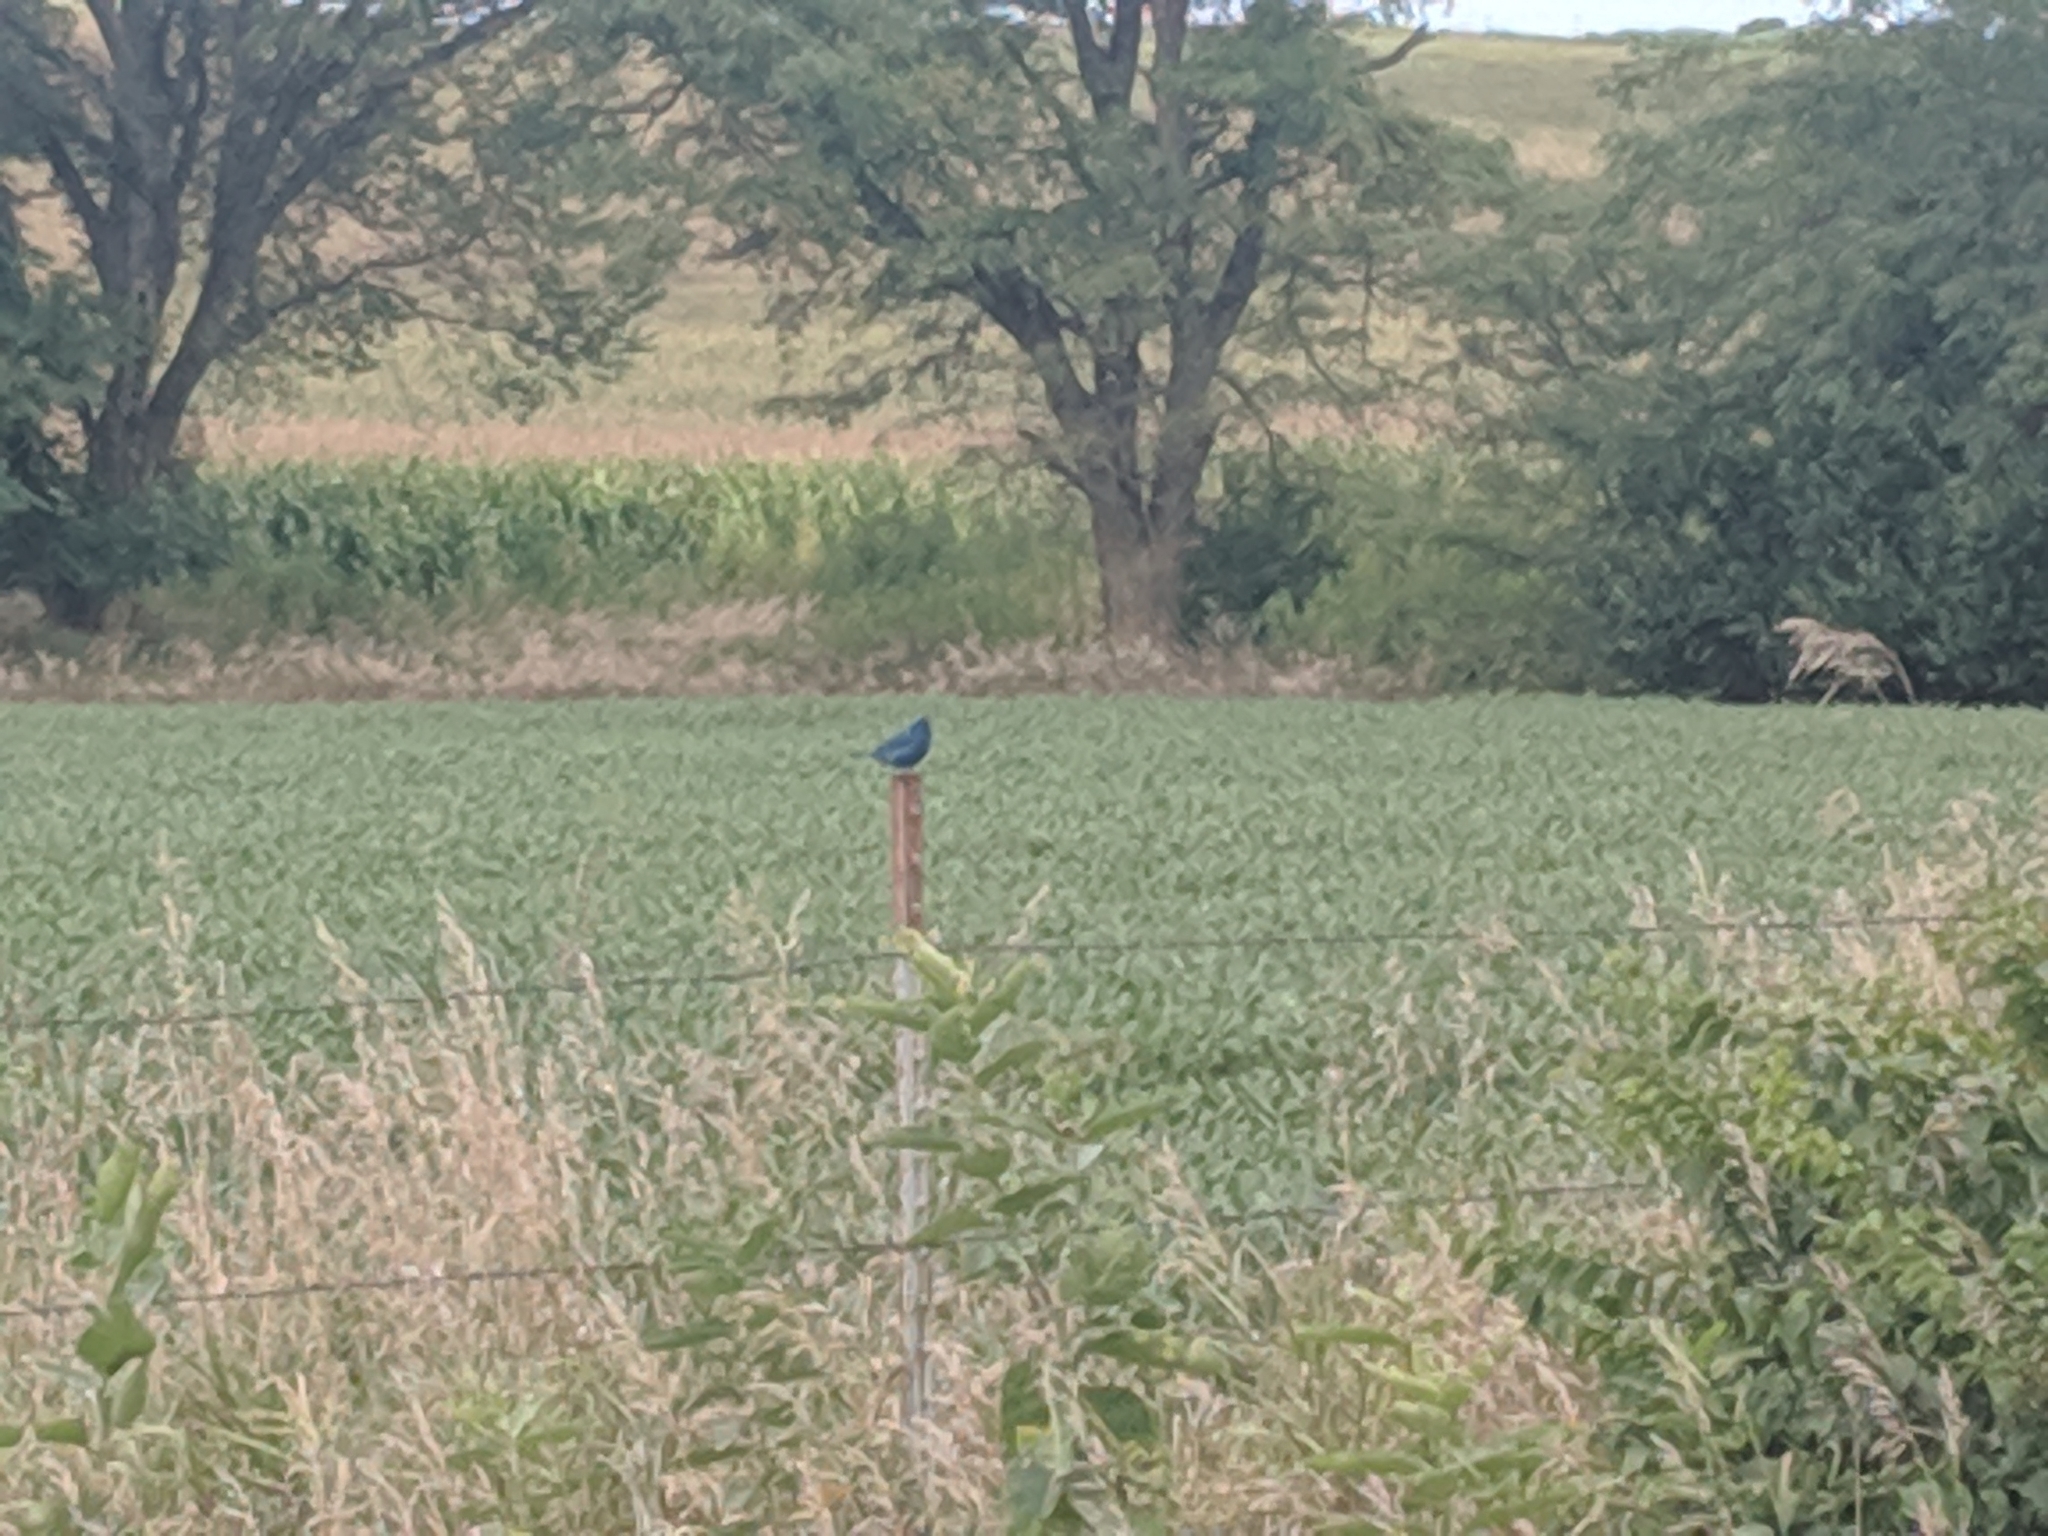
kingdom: Animalia
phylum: Chordata
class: Aves
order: Passeriformes
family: Cardinalidae
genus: Passerina
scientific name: Passerina cyanea
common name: Indigo bunting
